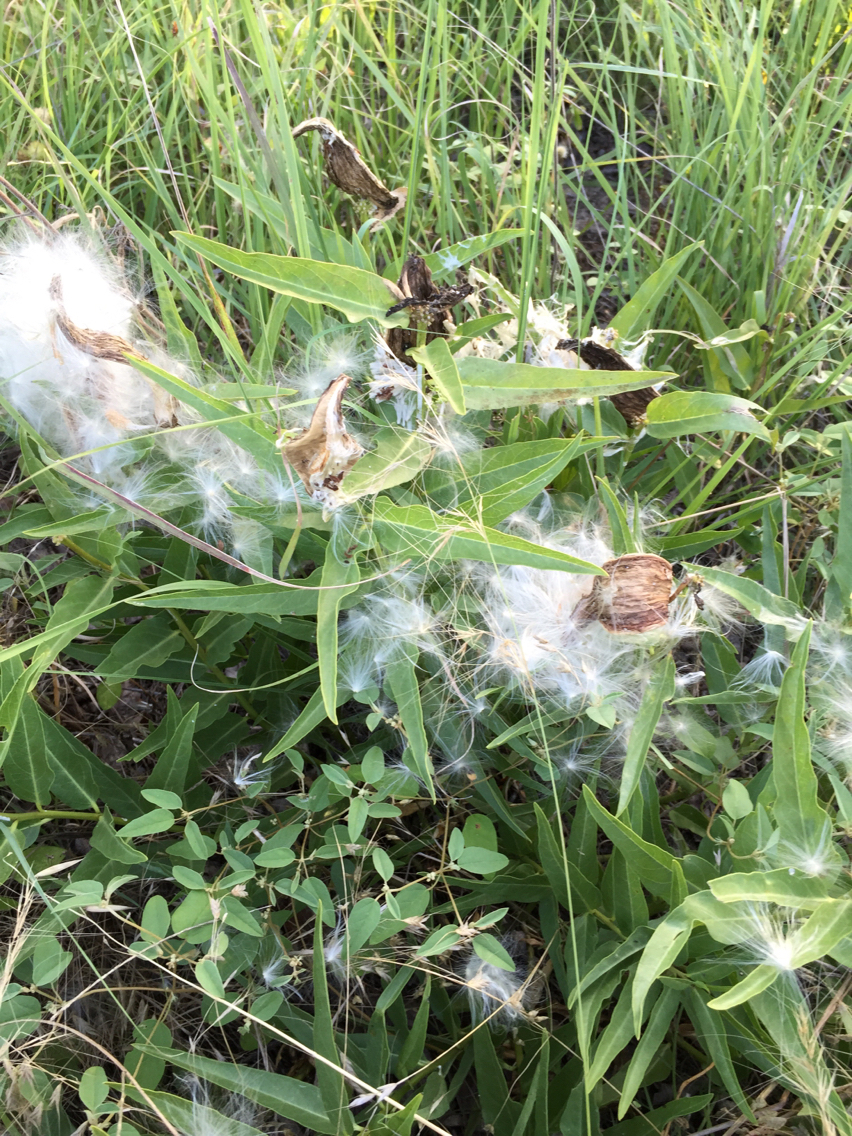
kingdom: Plantae
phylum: Tracheophyta
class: Magnoliopsida
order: Gentianales
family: Apocynaceae
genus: Asclepias
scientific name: Asclepias asperula
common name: Antelope horns
